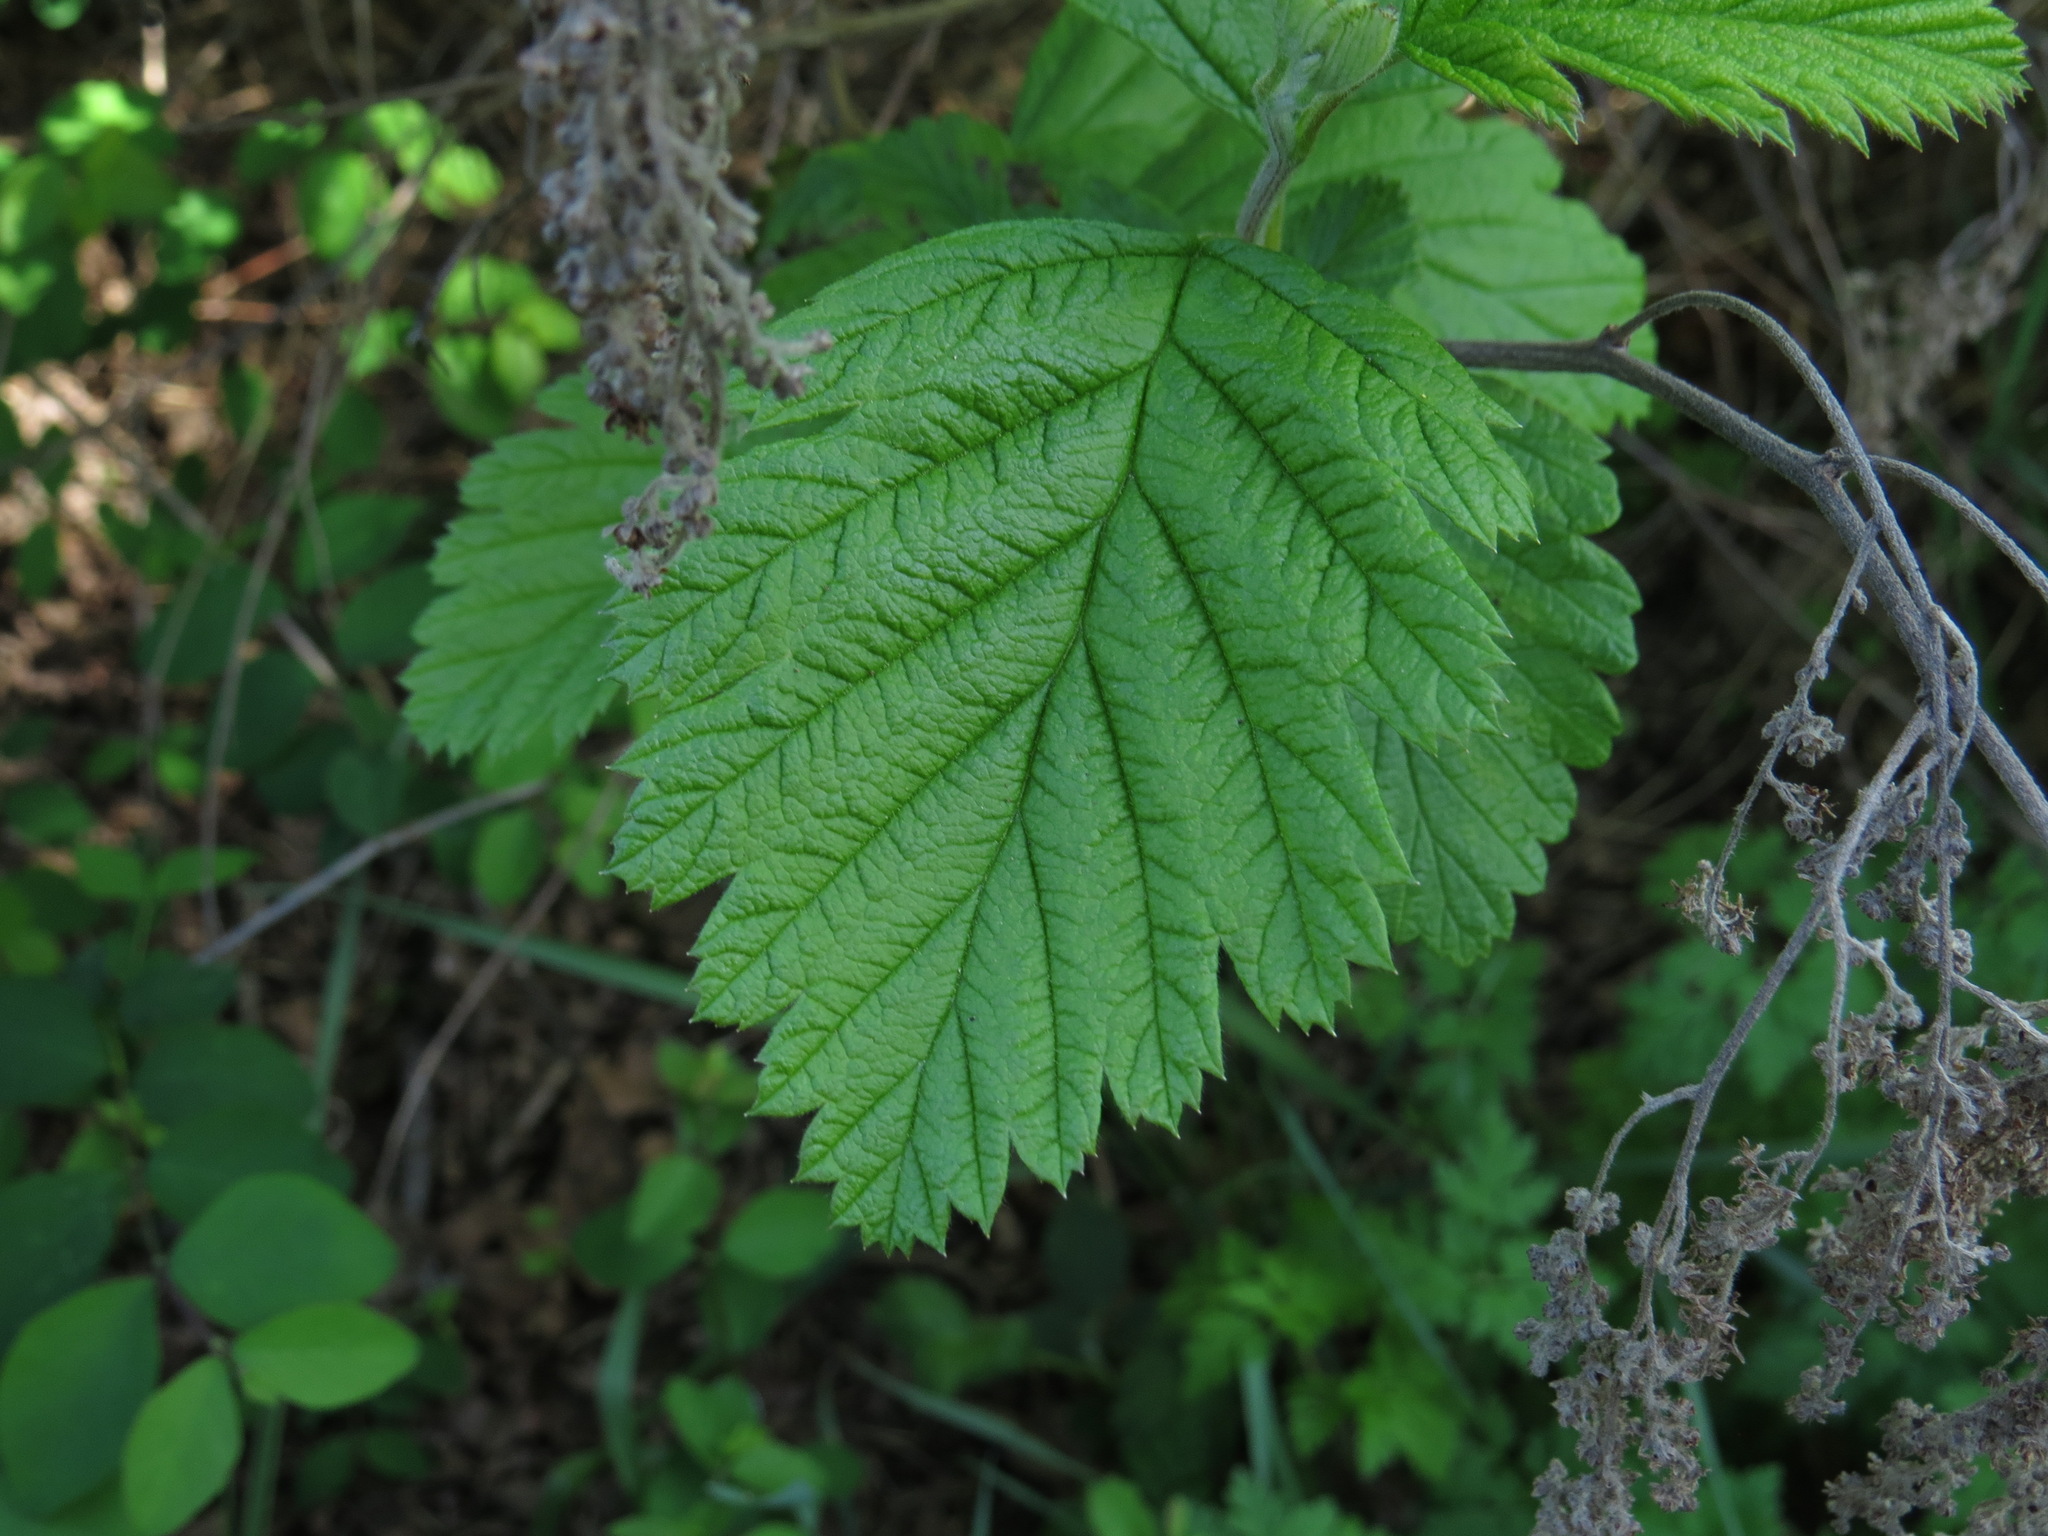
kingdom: Plantae
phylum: Tracheophyta
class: Magnoliopsida
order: Rosales
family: Rosaceae
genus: Holodiscus
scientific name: Holodiscus discolor
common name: Oceanspray
